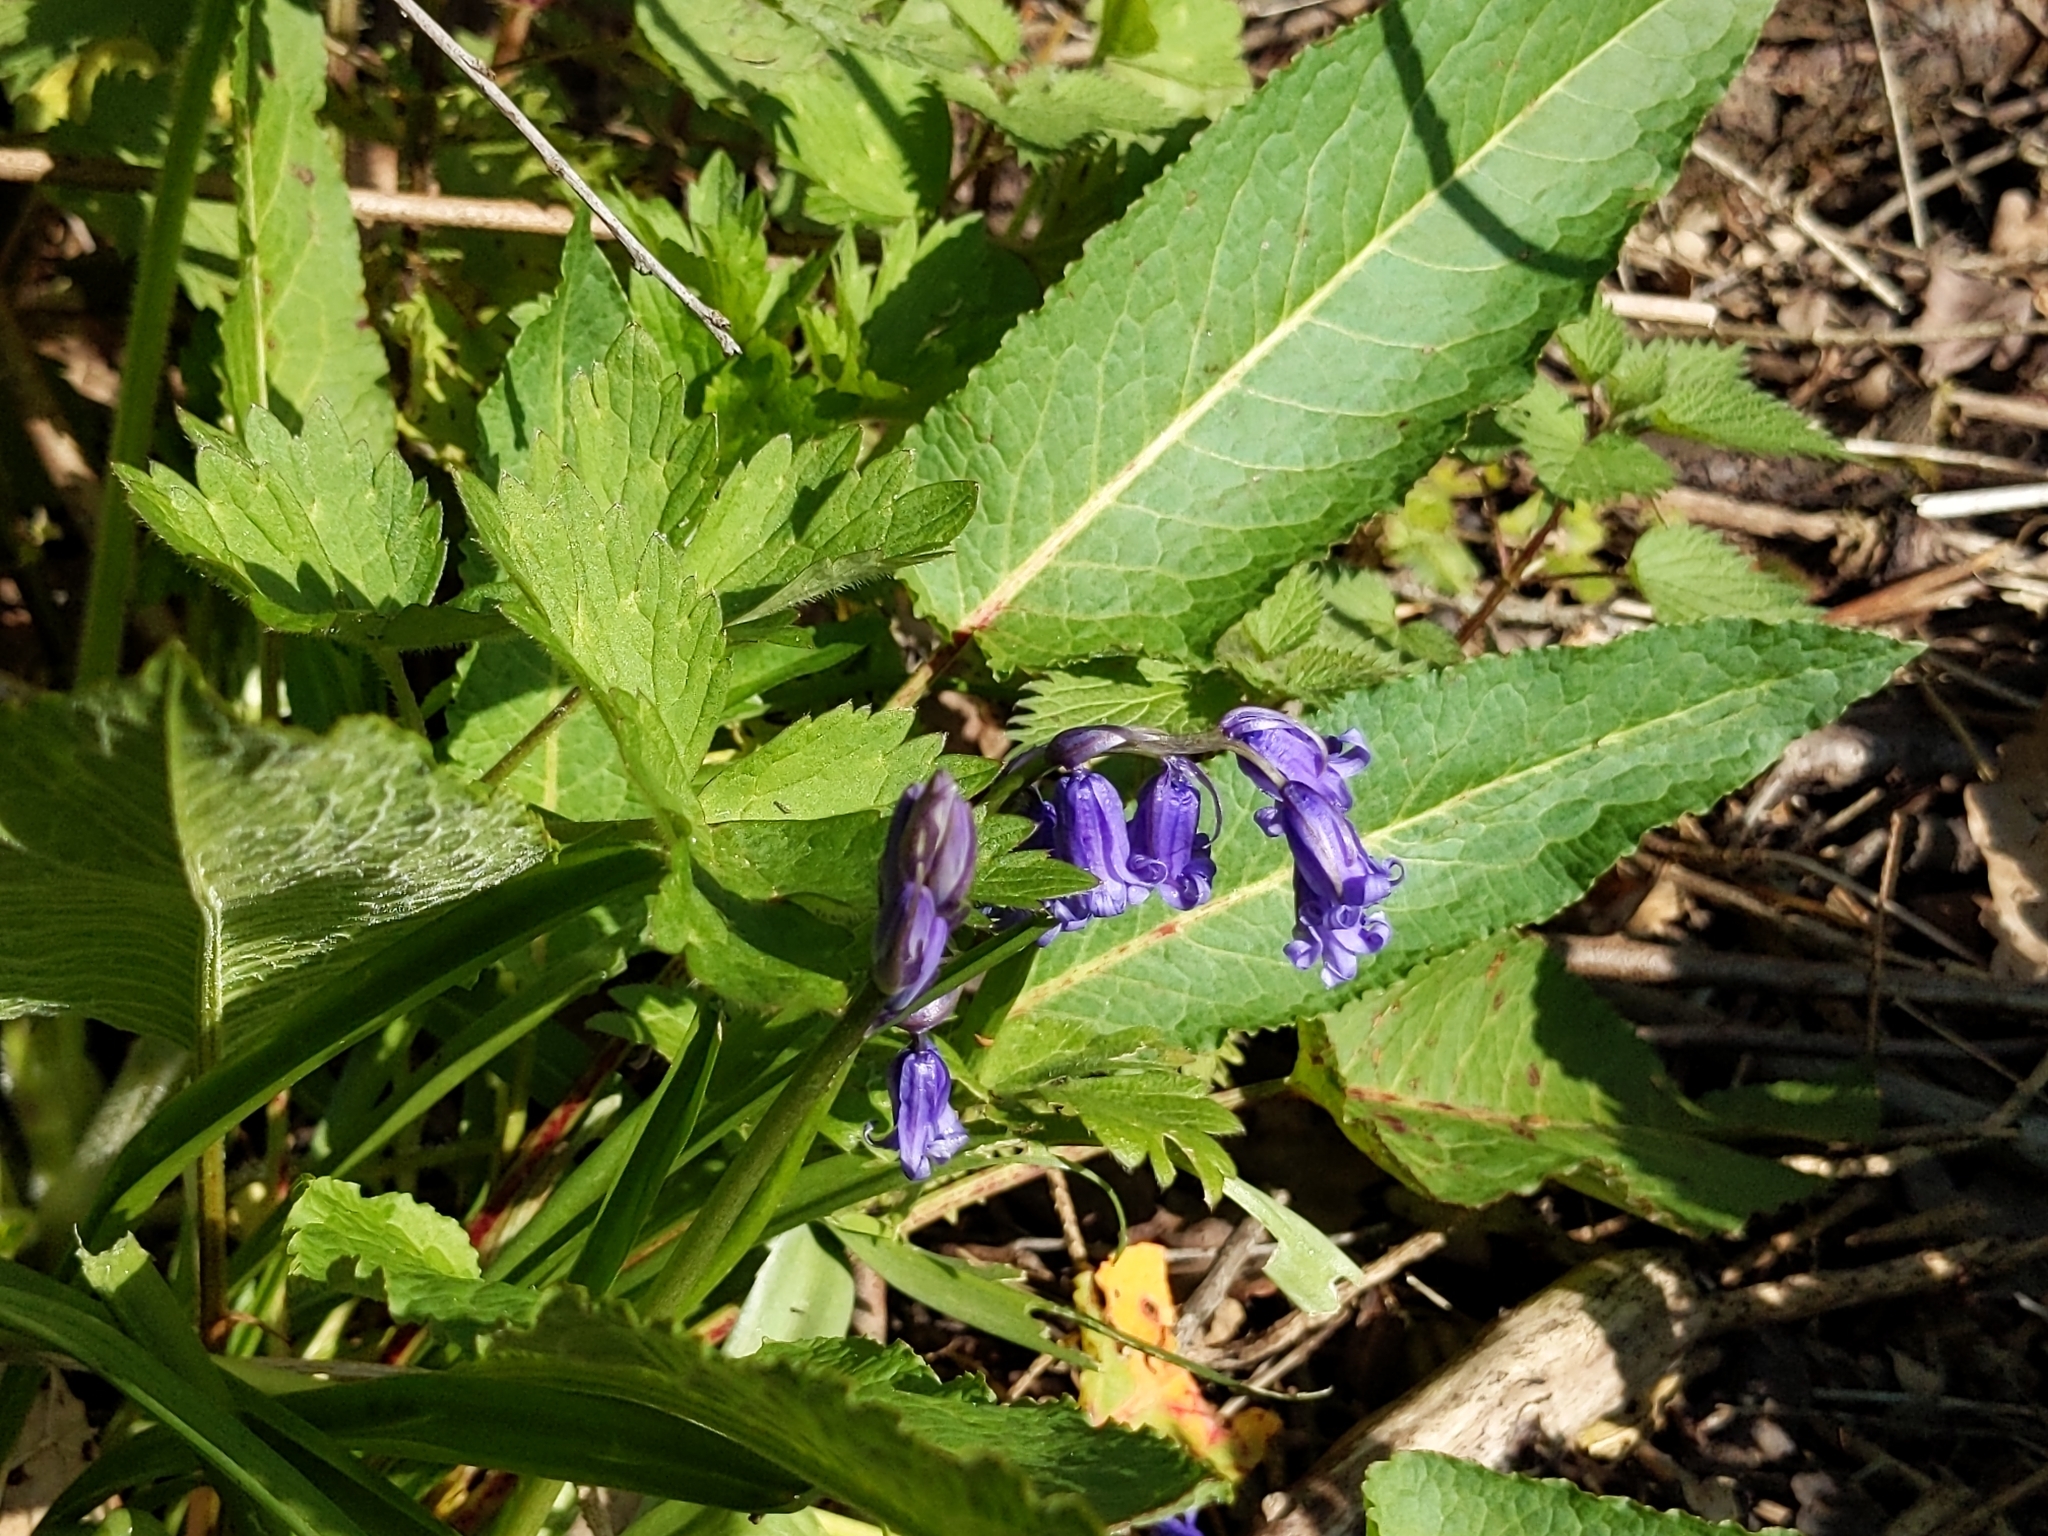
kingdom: Plantae
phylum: Tracheophyta
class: Liliopsida
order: Asparagales
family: Asparagaceae
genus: Hyacinthoides
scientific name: Hyacinthoides non-scripta
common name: Bluebell
